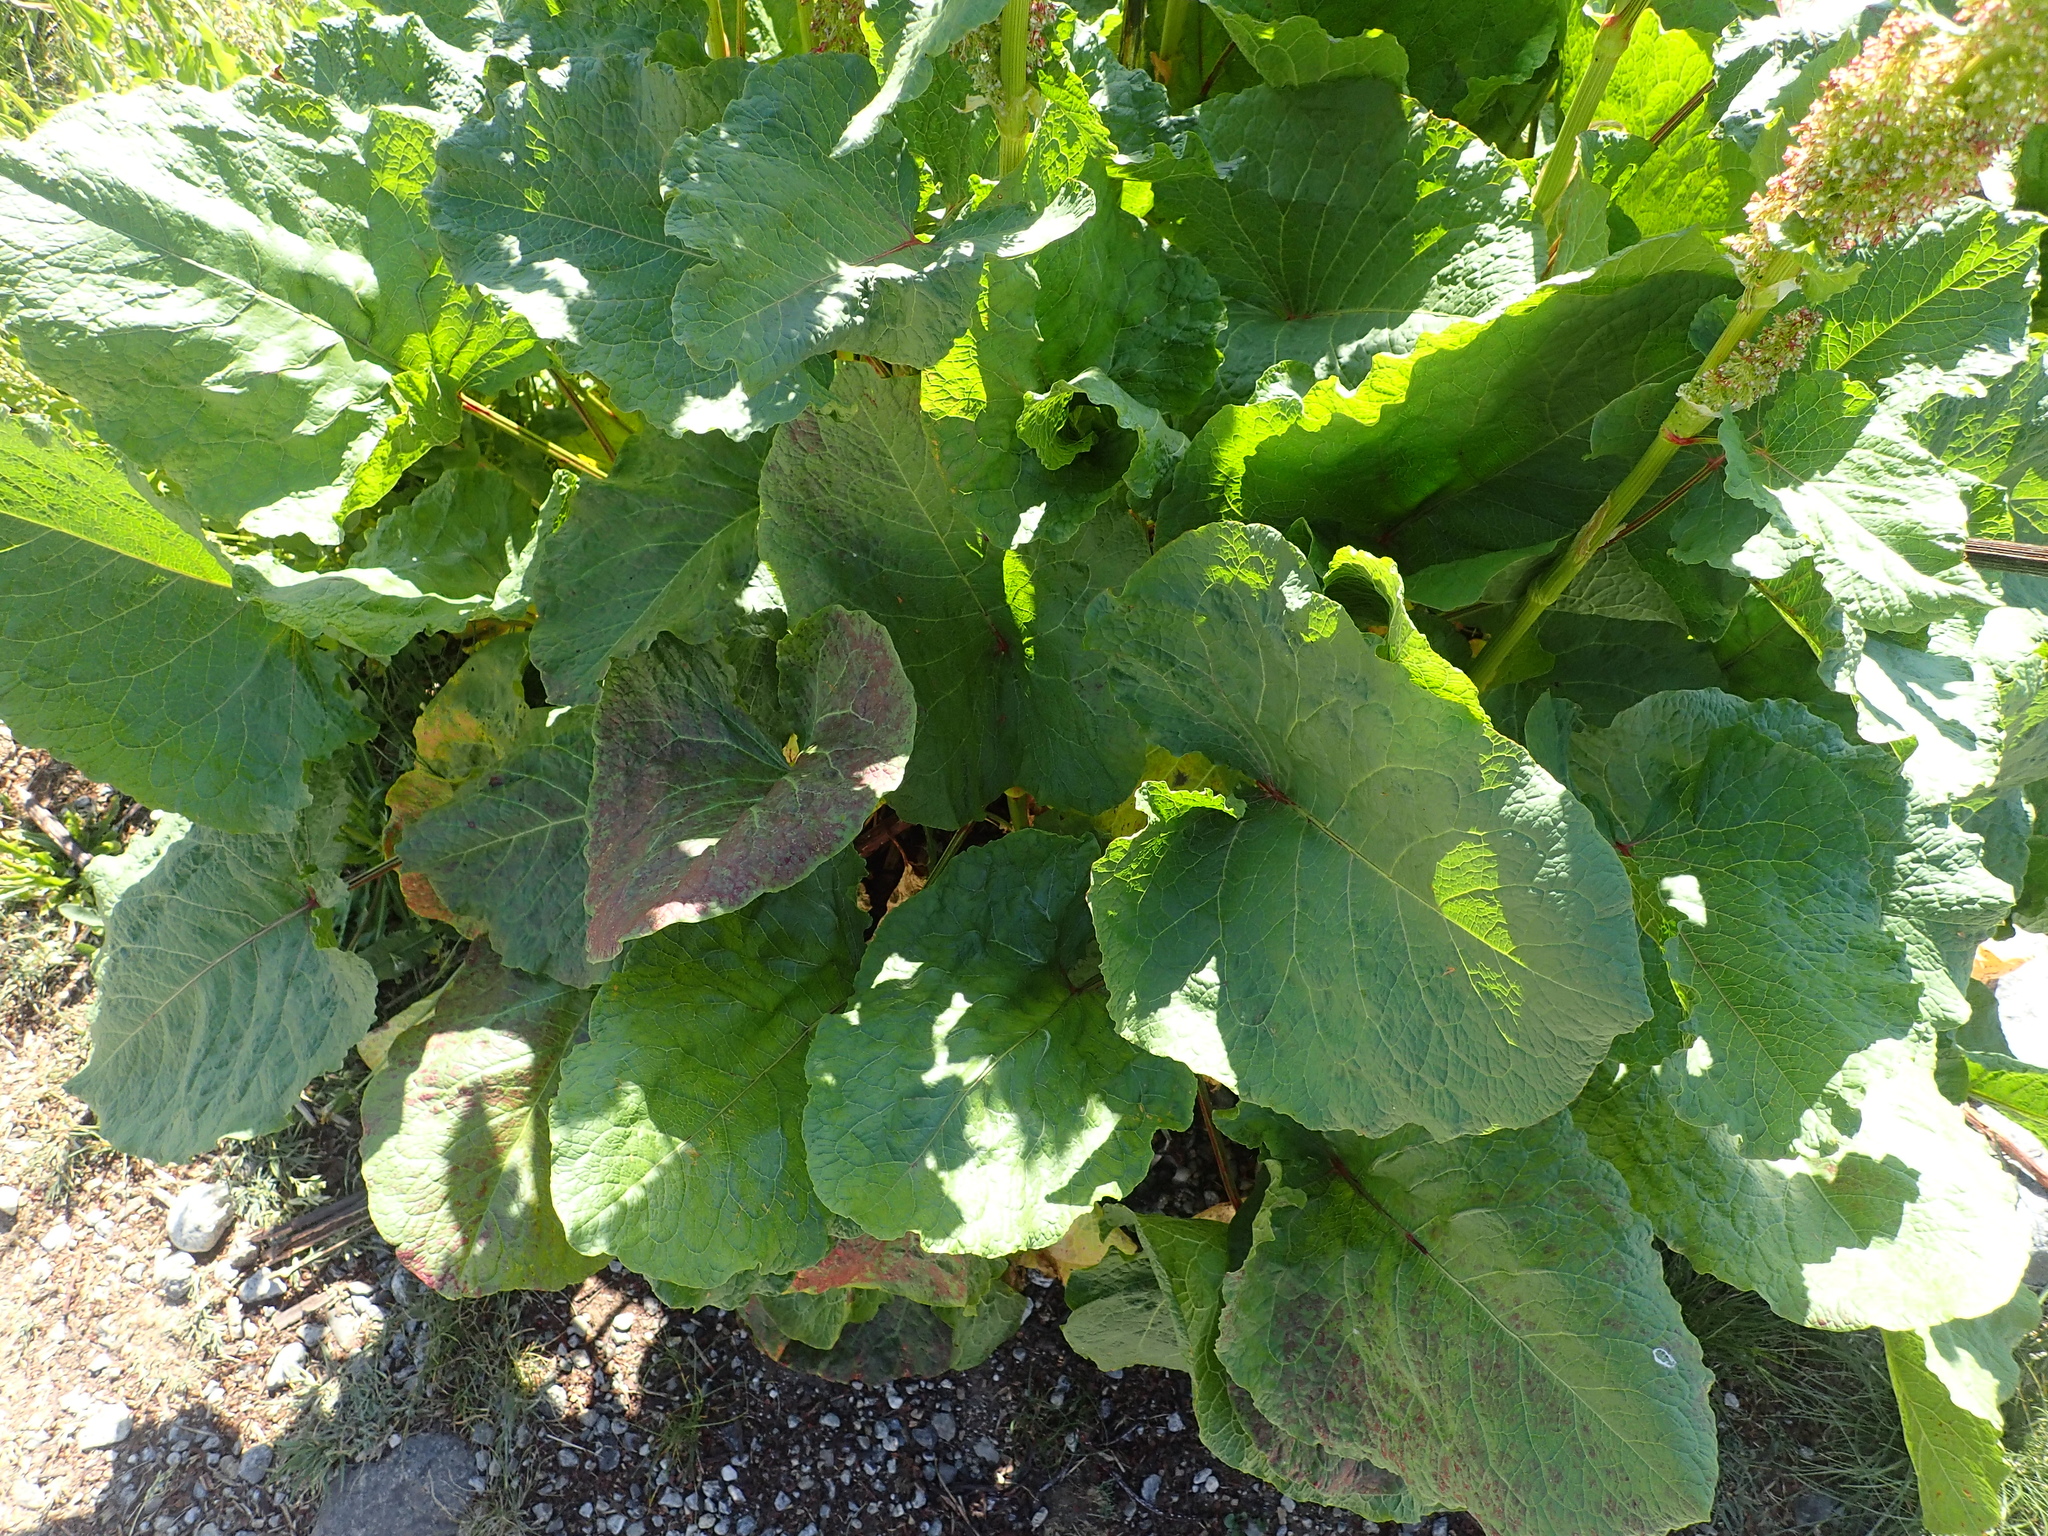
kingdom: Plantae
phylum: Tracheophyta
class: Magnoliopsida
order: Caryophyllales
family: Polygonaceae
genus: Rumex
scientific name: Rumex alpinus
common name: Alpine dock
